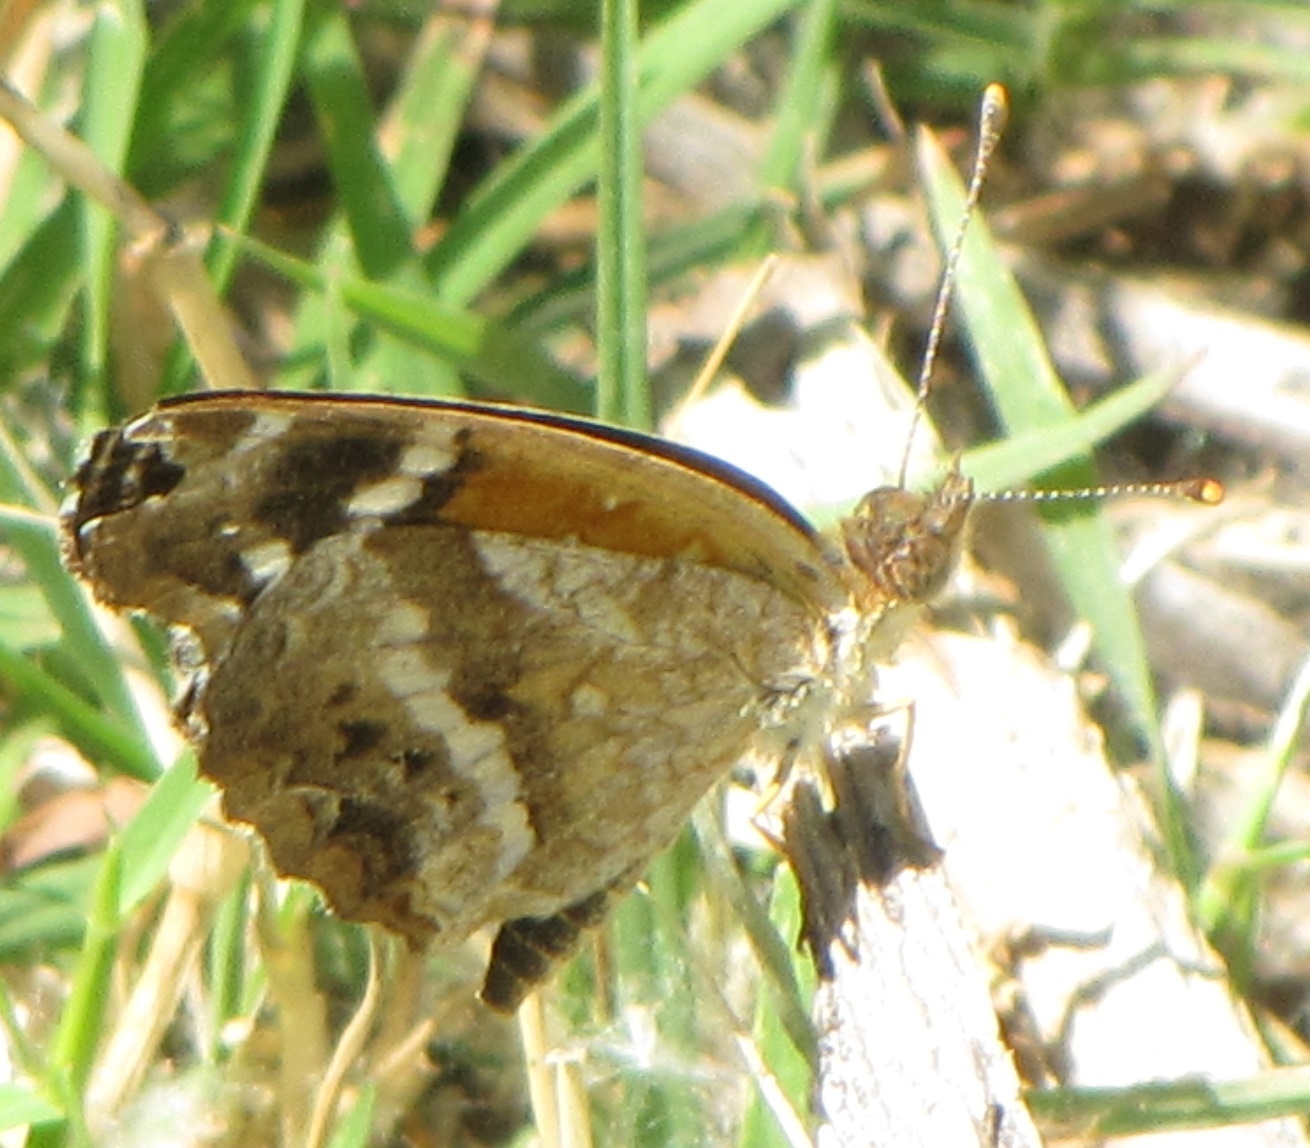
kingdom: Animalia
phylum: Arthropoda
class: Insecta
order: Lepidoptera
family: Nymphalidae
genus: Anthanassa
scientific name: Anthanassa texana
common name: Texan crescent
